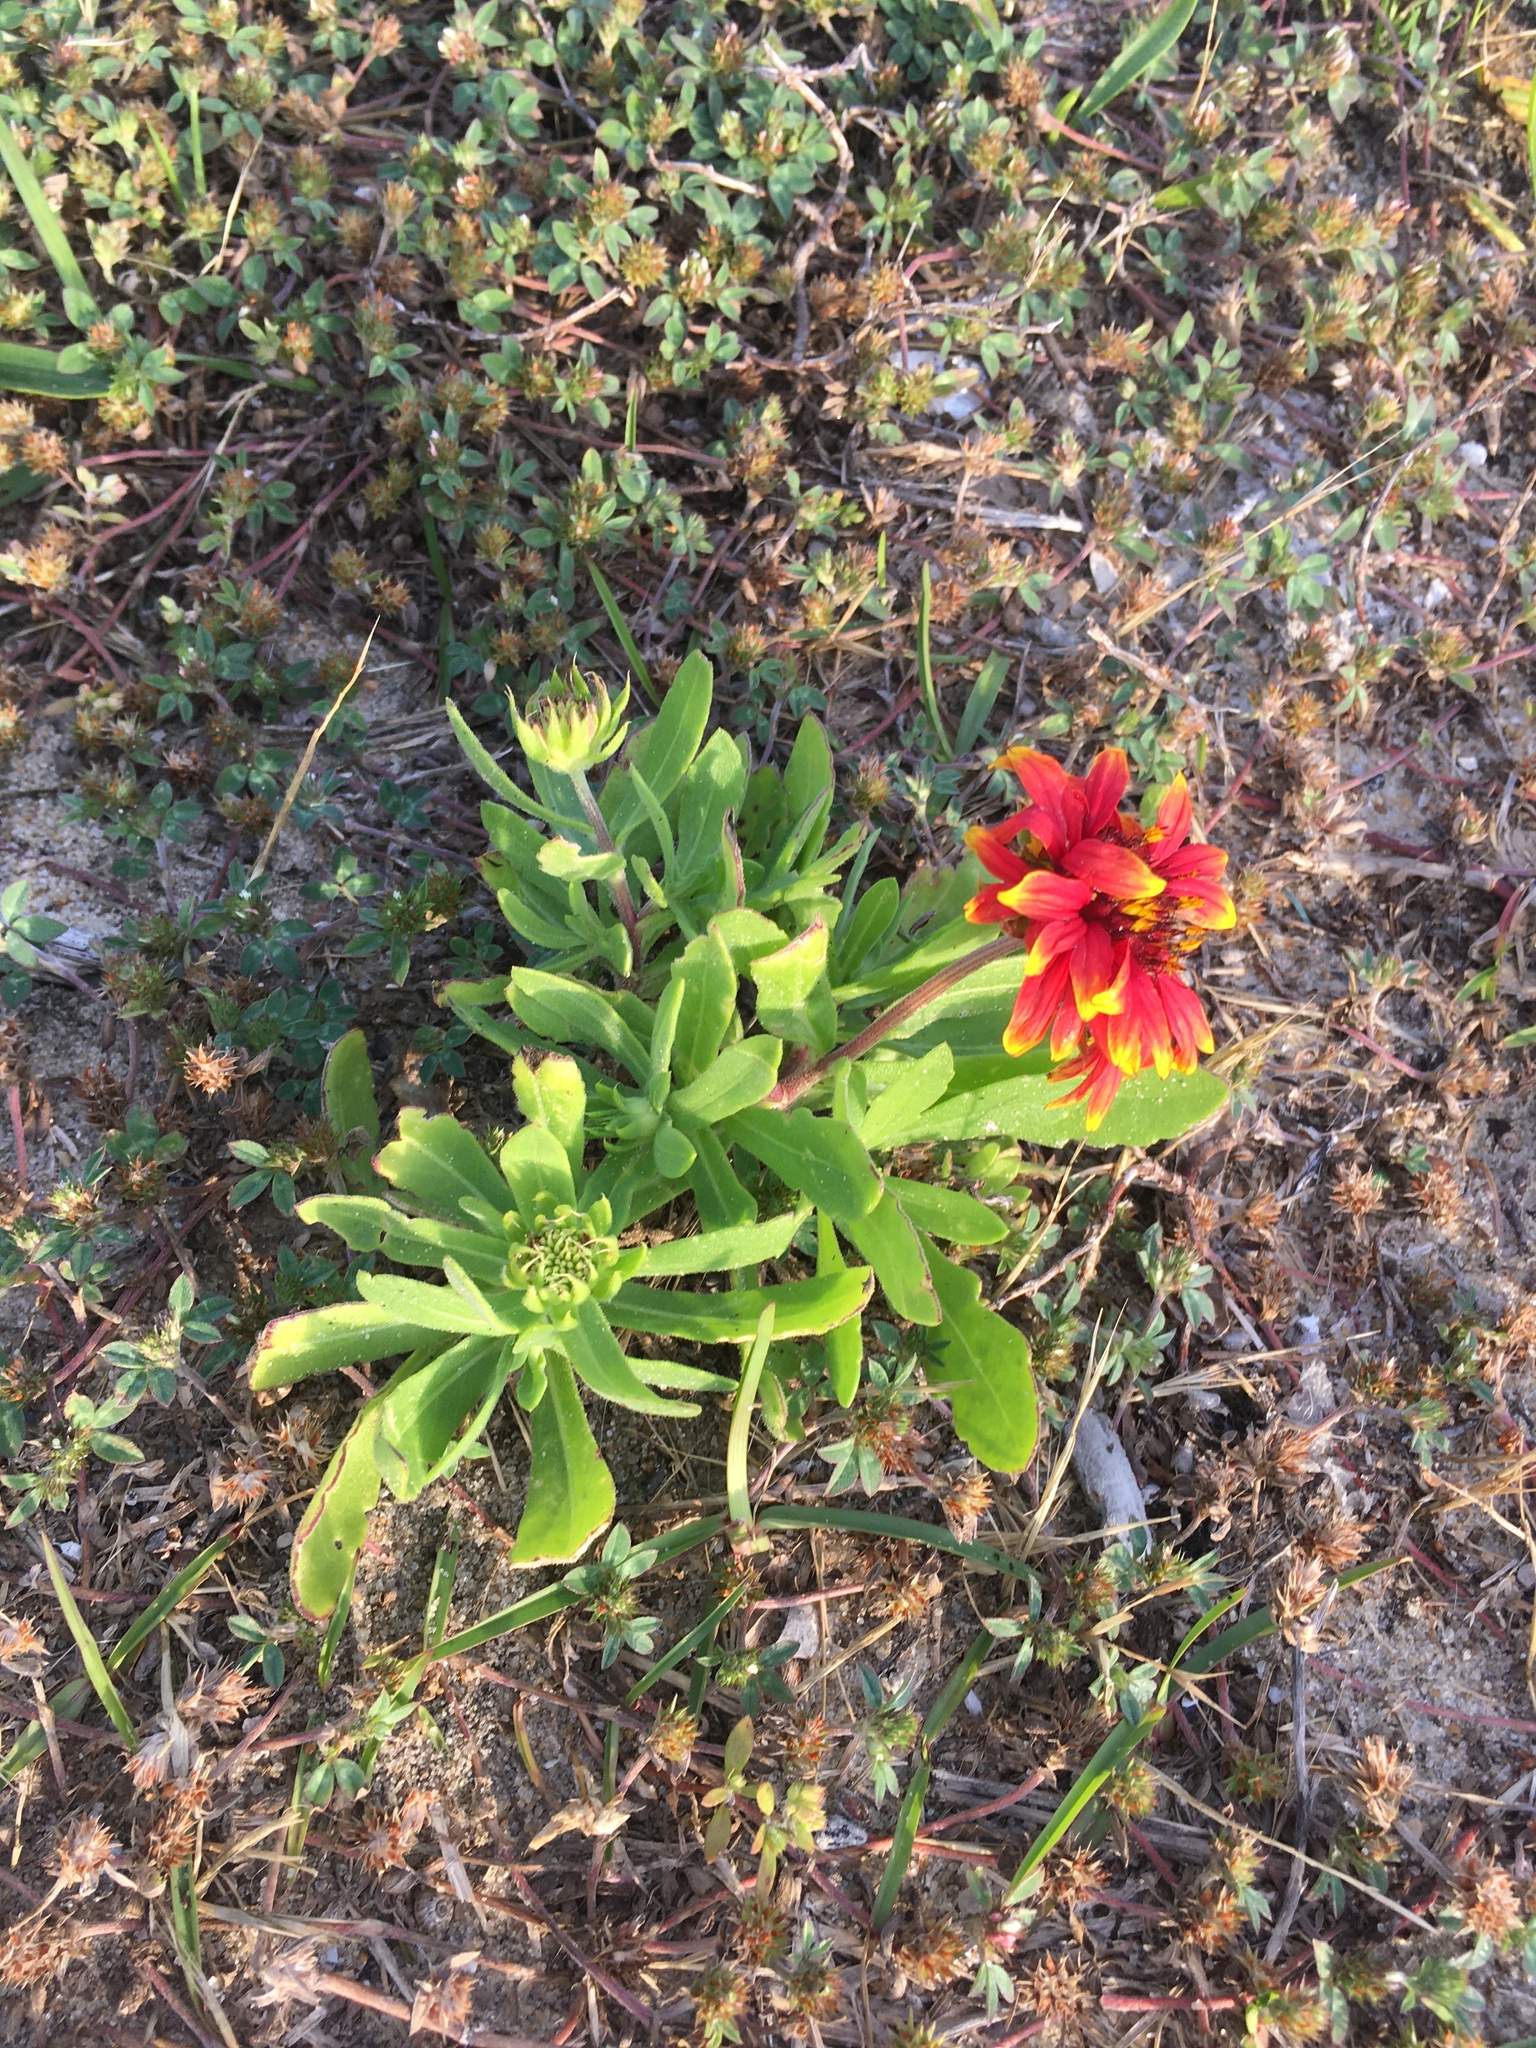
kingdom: Plantae
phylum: Tracheophyta
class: Magnoliopsida
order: Asterales
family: Asteraceae
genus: Gaillardia
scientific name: Gaillardia pulchella
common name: Firewheel
